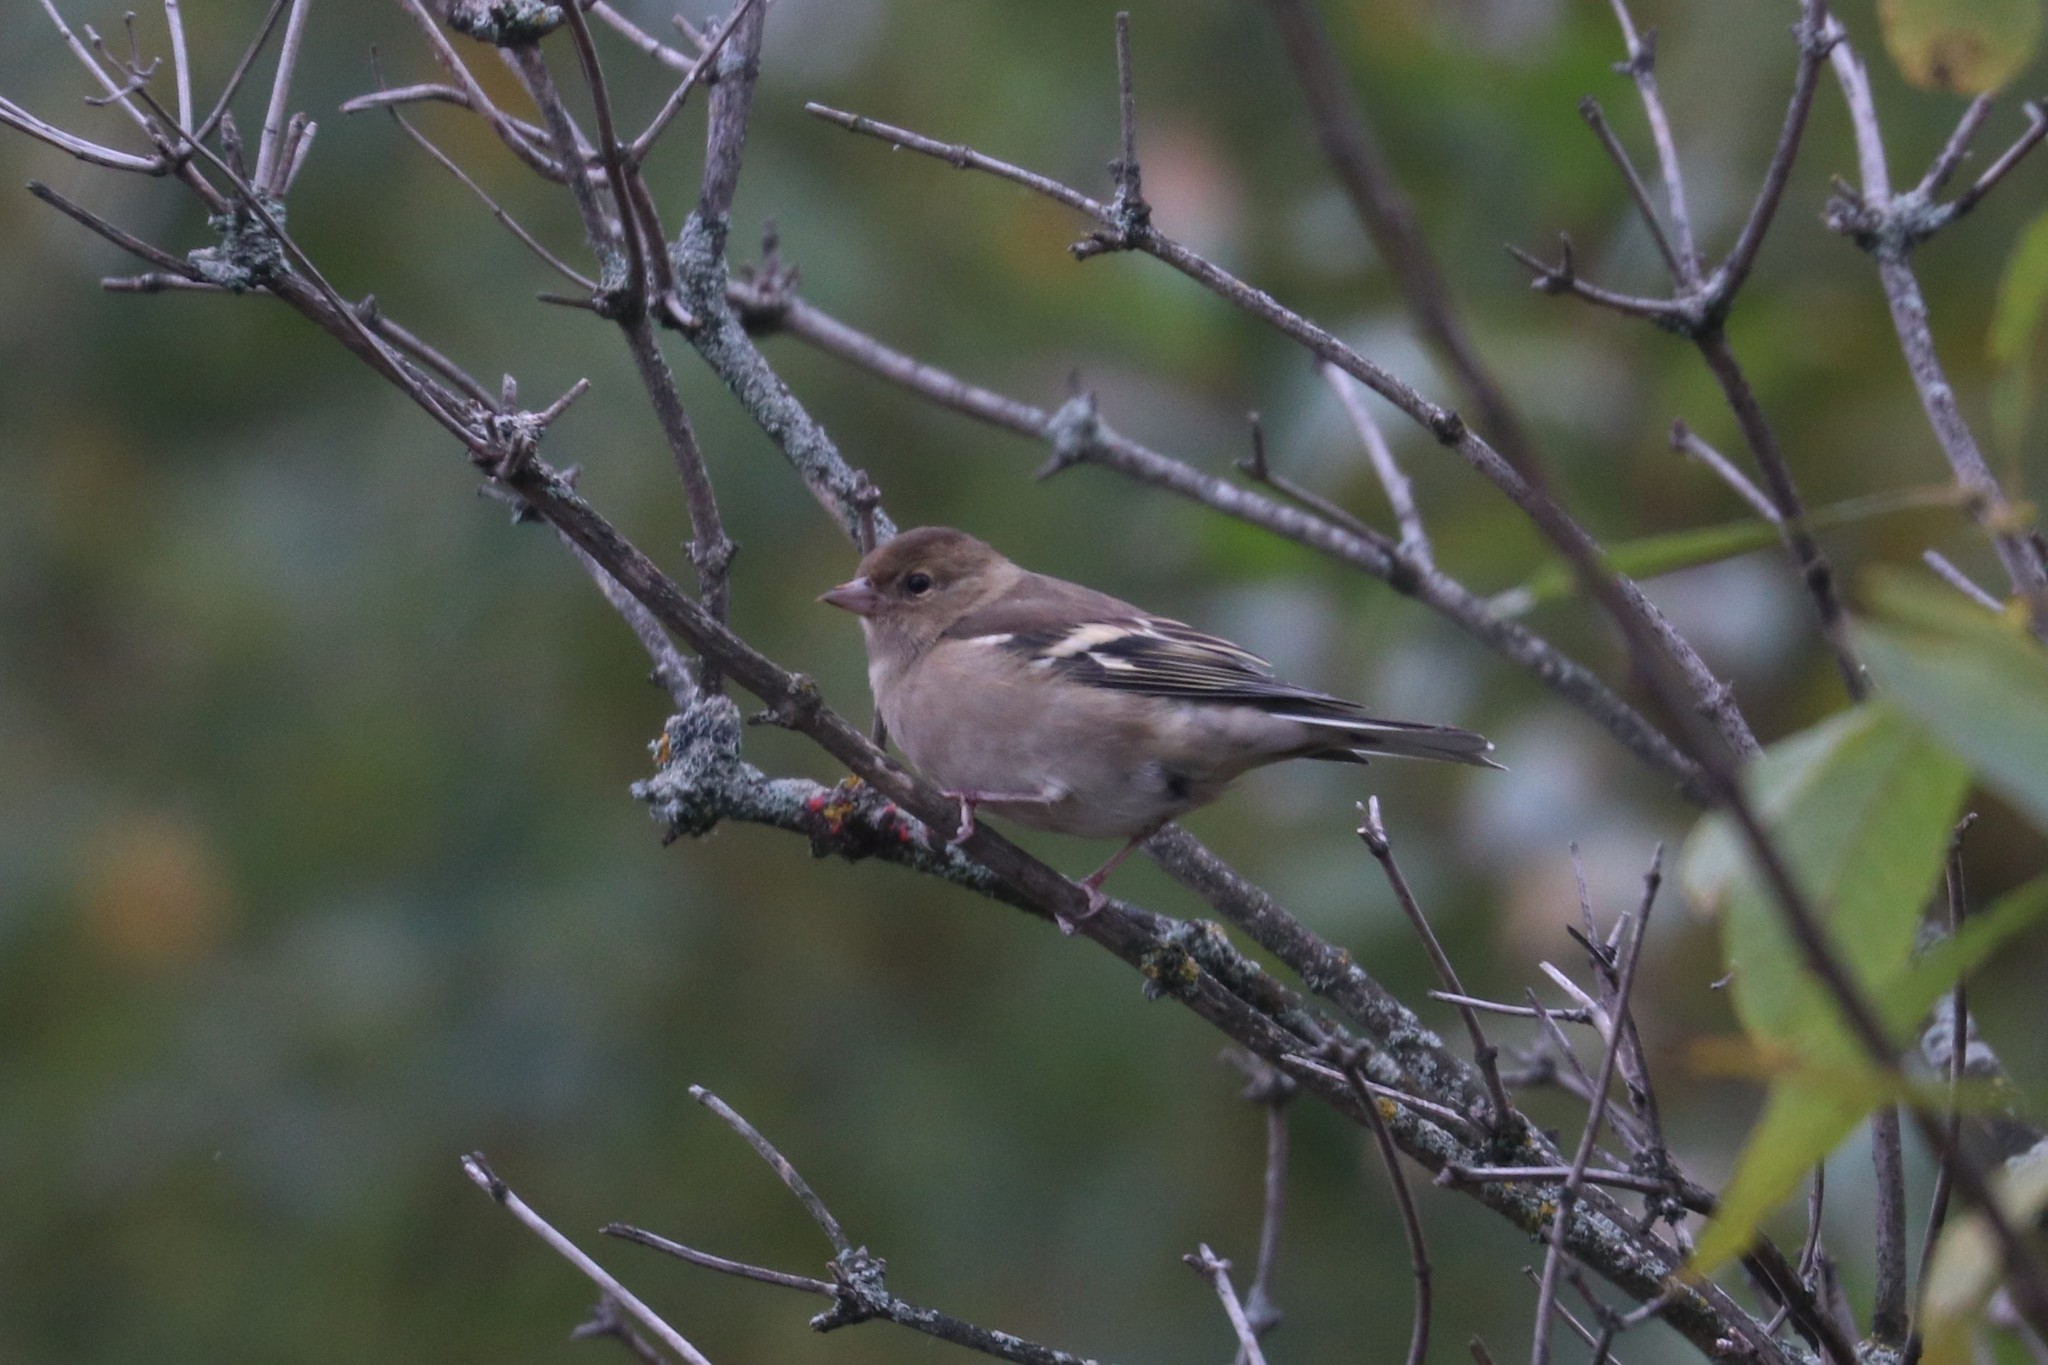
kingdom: Animalia
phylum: Chordata
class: Aves
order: Passeriformes
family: Fringillidae
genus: Fringilla
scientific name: Fringilla coelebs
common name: Common chaffinch
